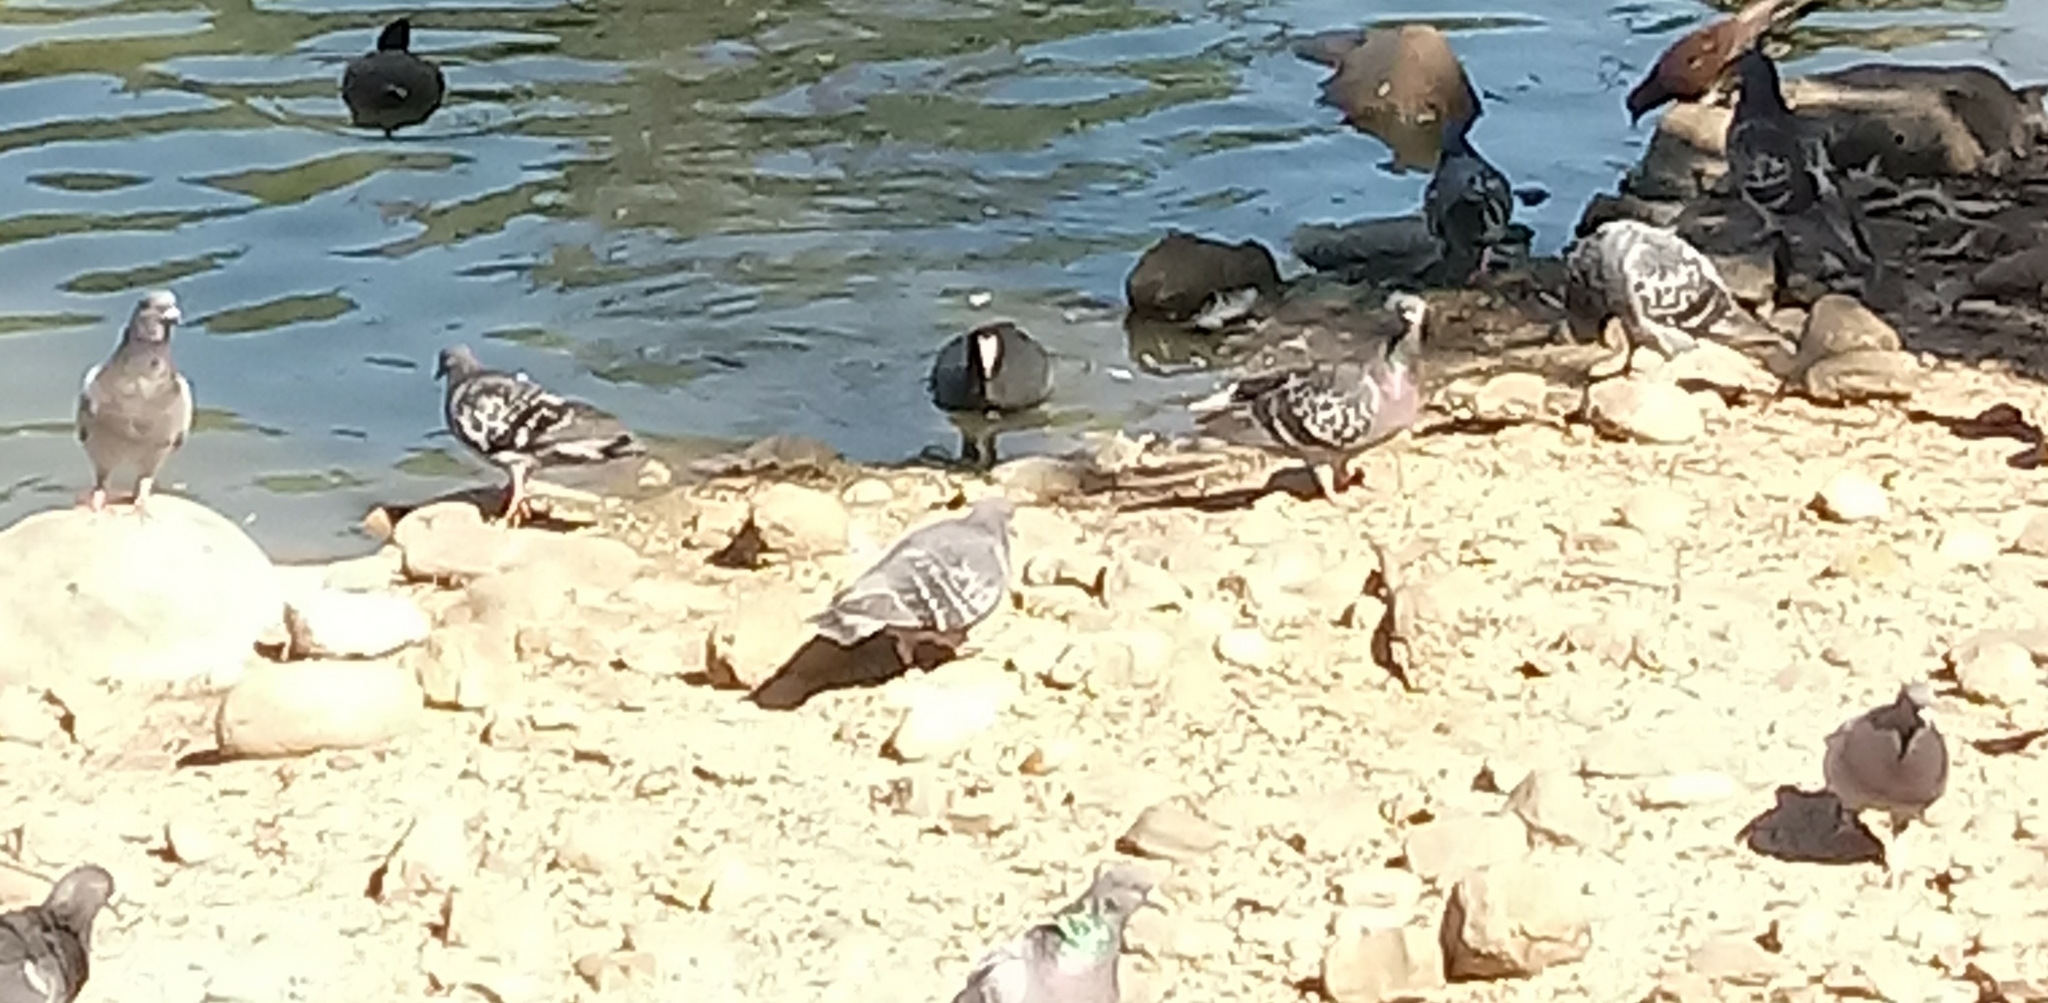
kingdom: Animalia
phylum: Chordata
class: Aves
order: Columbiformes
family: Columbidae
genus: Columba
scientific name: Columba livia
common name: Rock pigeon
